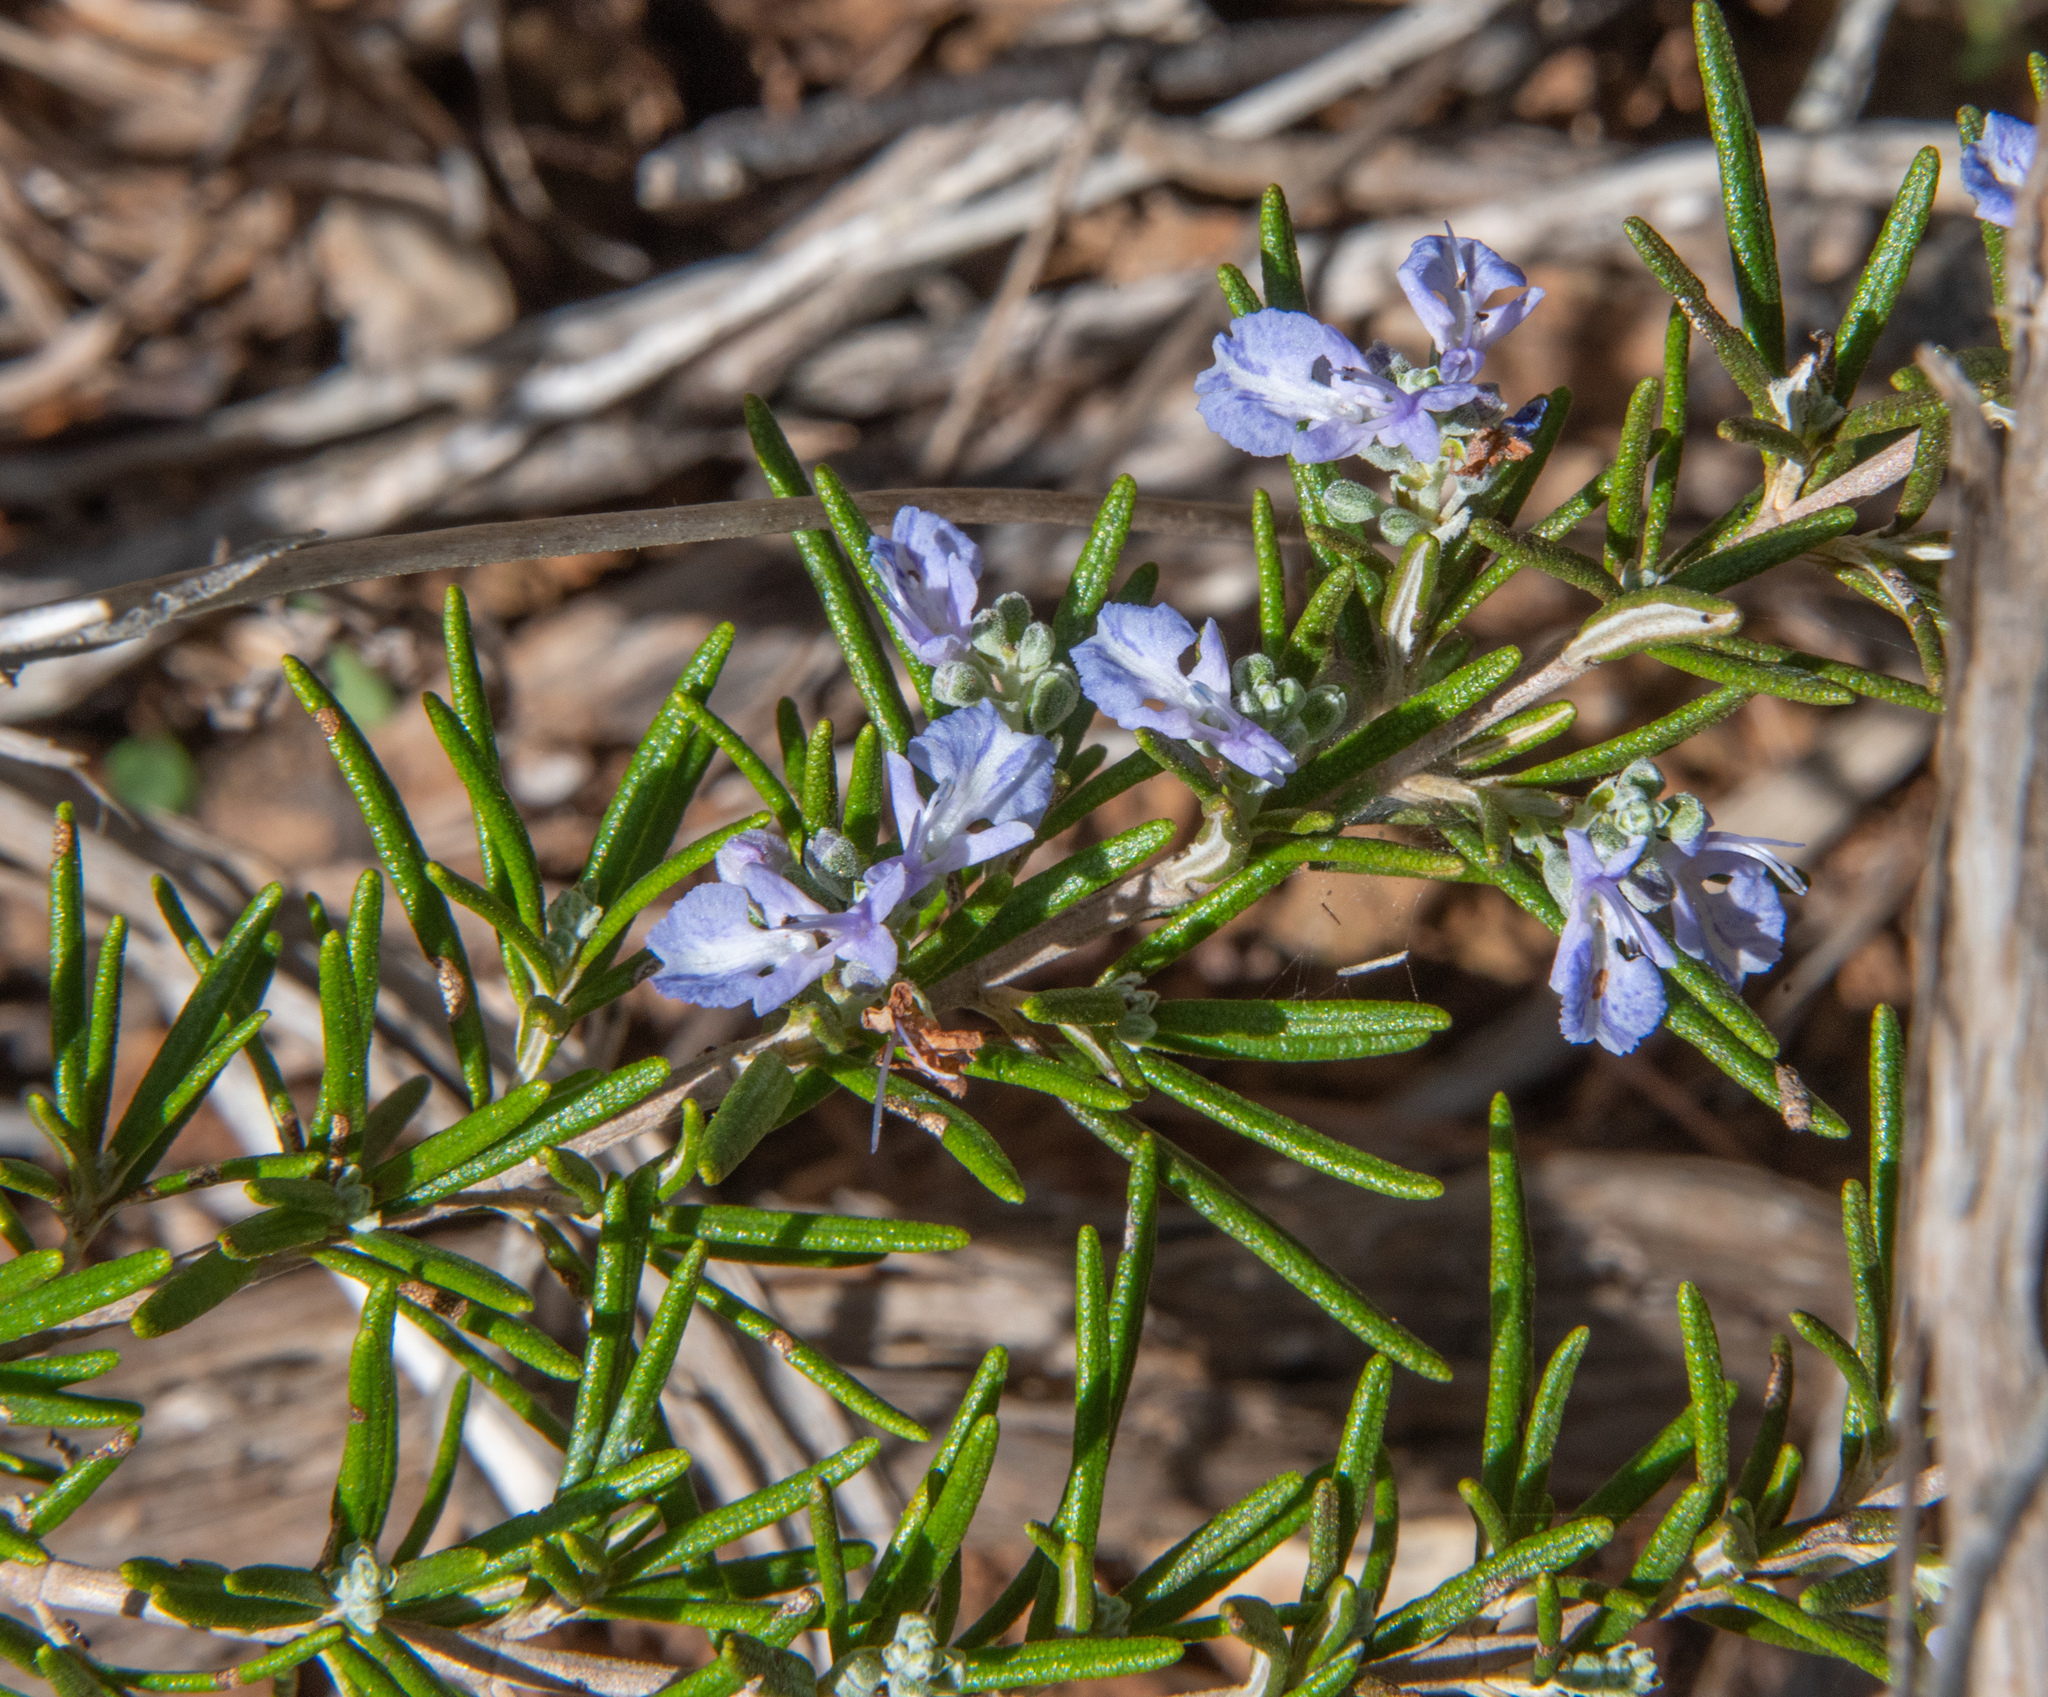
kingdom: Plantae
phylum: Tracheophyta
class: Magnoliopsida
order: Lamiales
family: Lamiaceae
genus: Salvia
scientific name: Salvia rosmarinus
